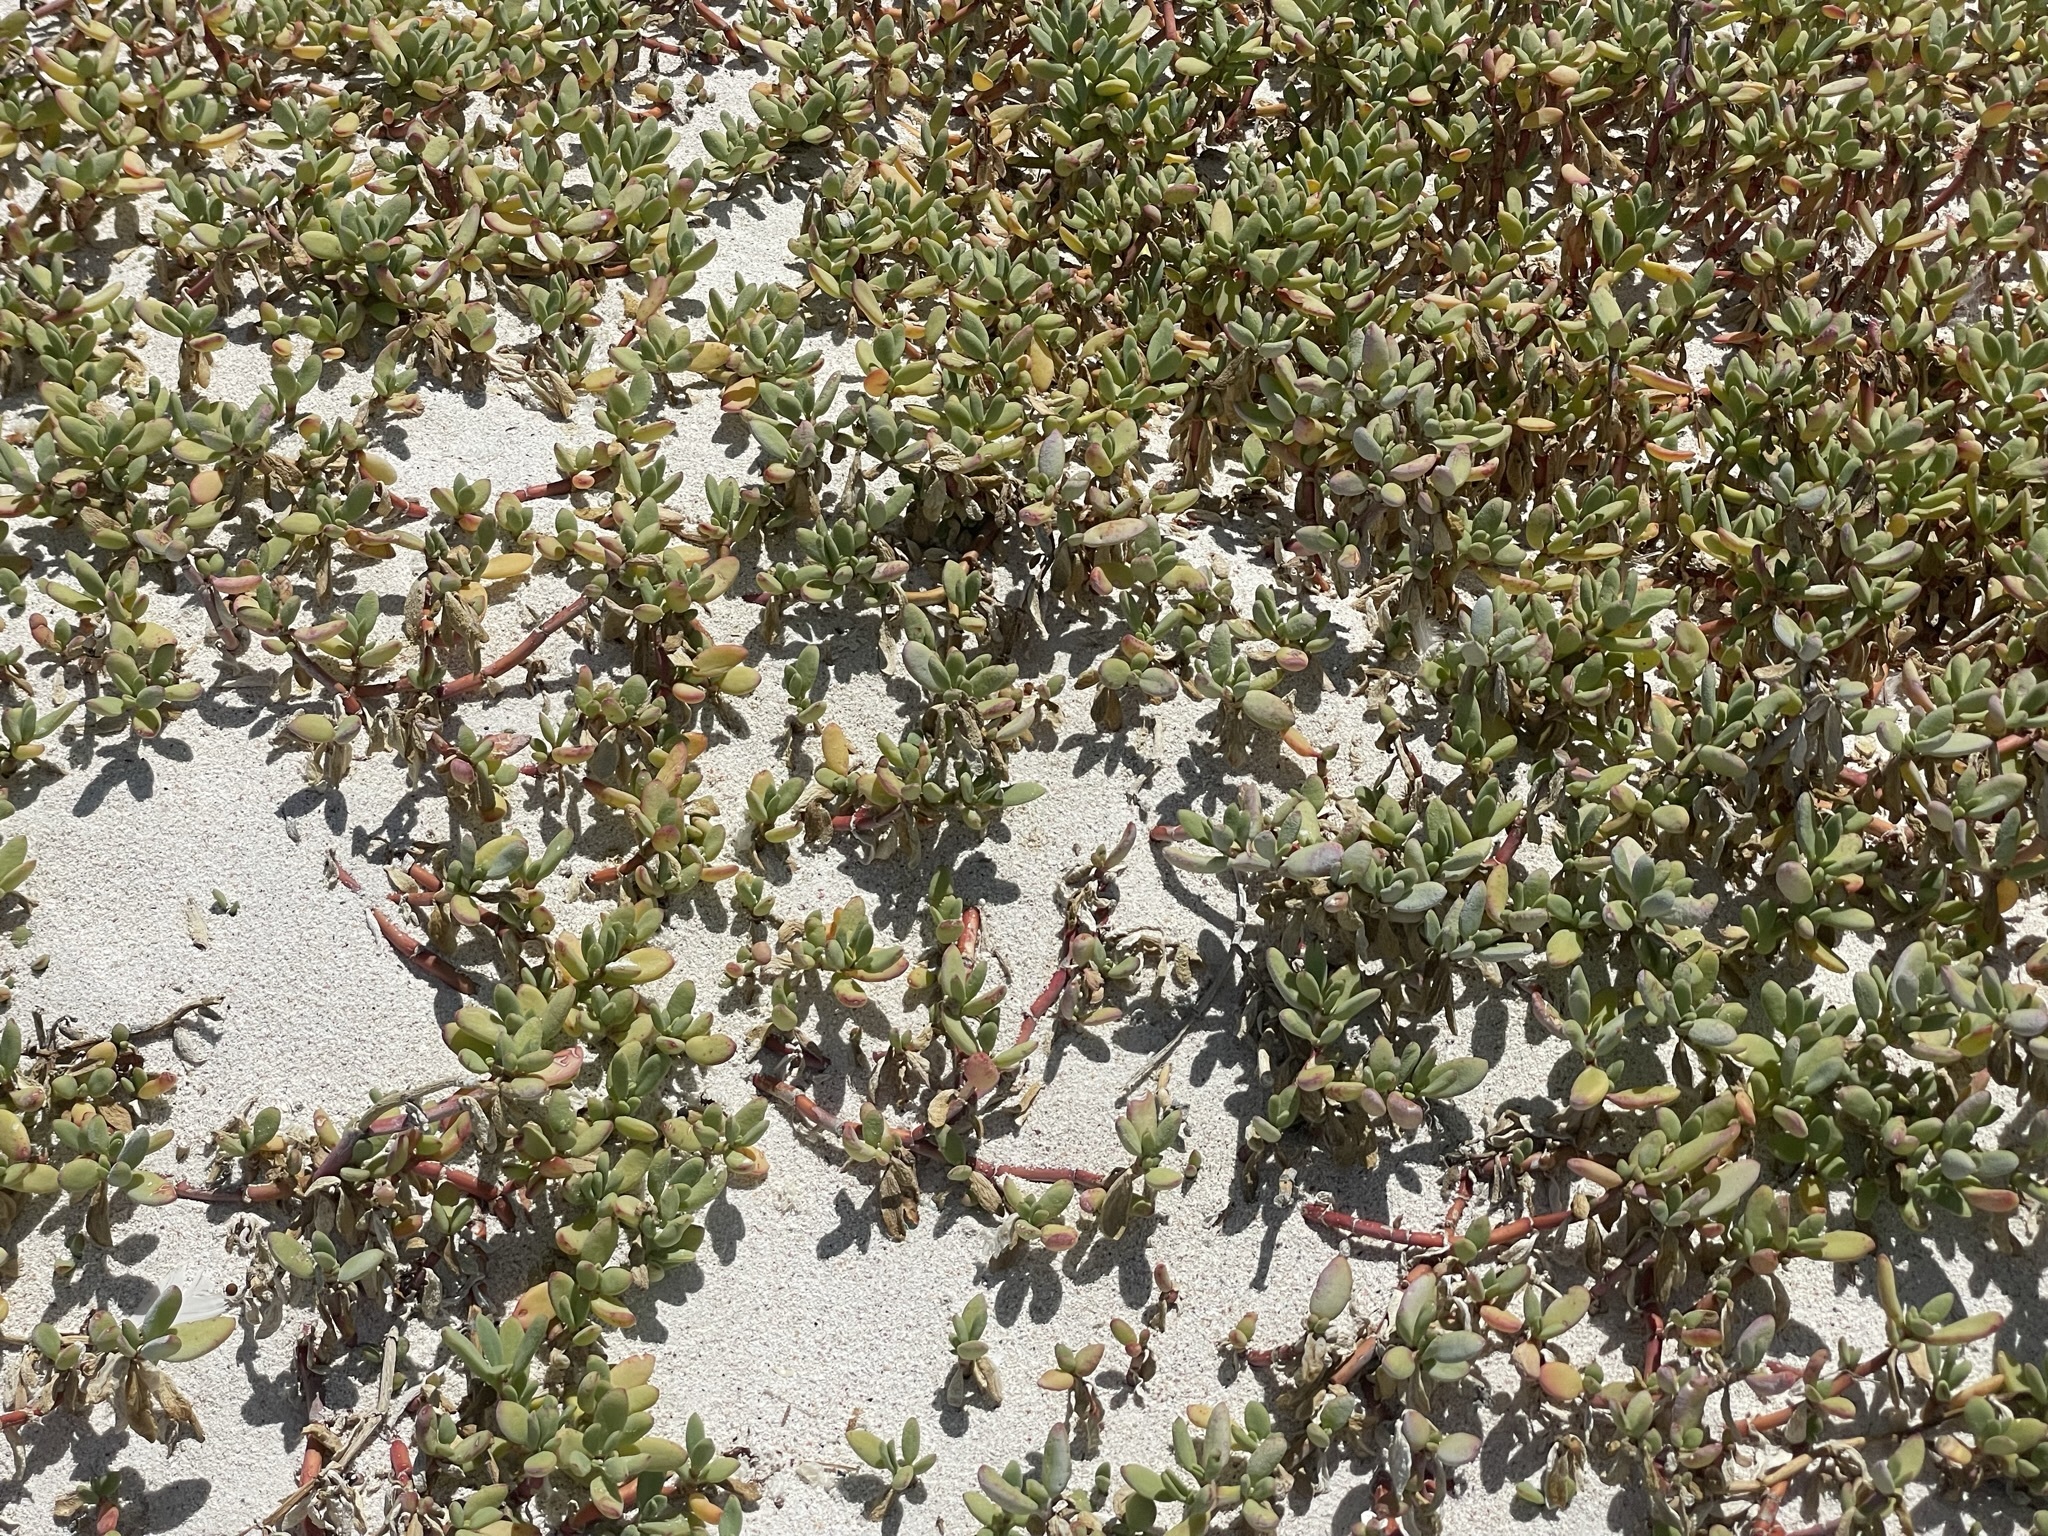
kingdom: Plantae
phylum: Tracheophyta
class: Magnoliopsida
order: Caryophyllales
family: Aizoaceae
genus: Sesuvium
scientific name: Sesuvium portulacastrum
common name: Sea-purslane
